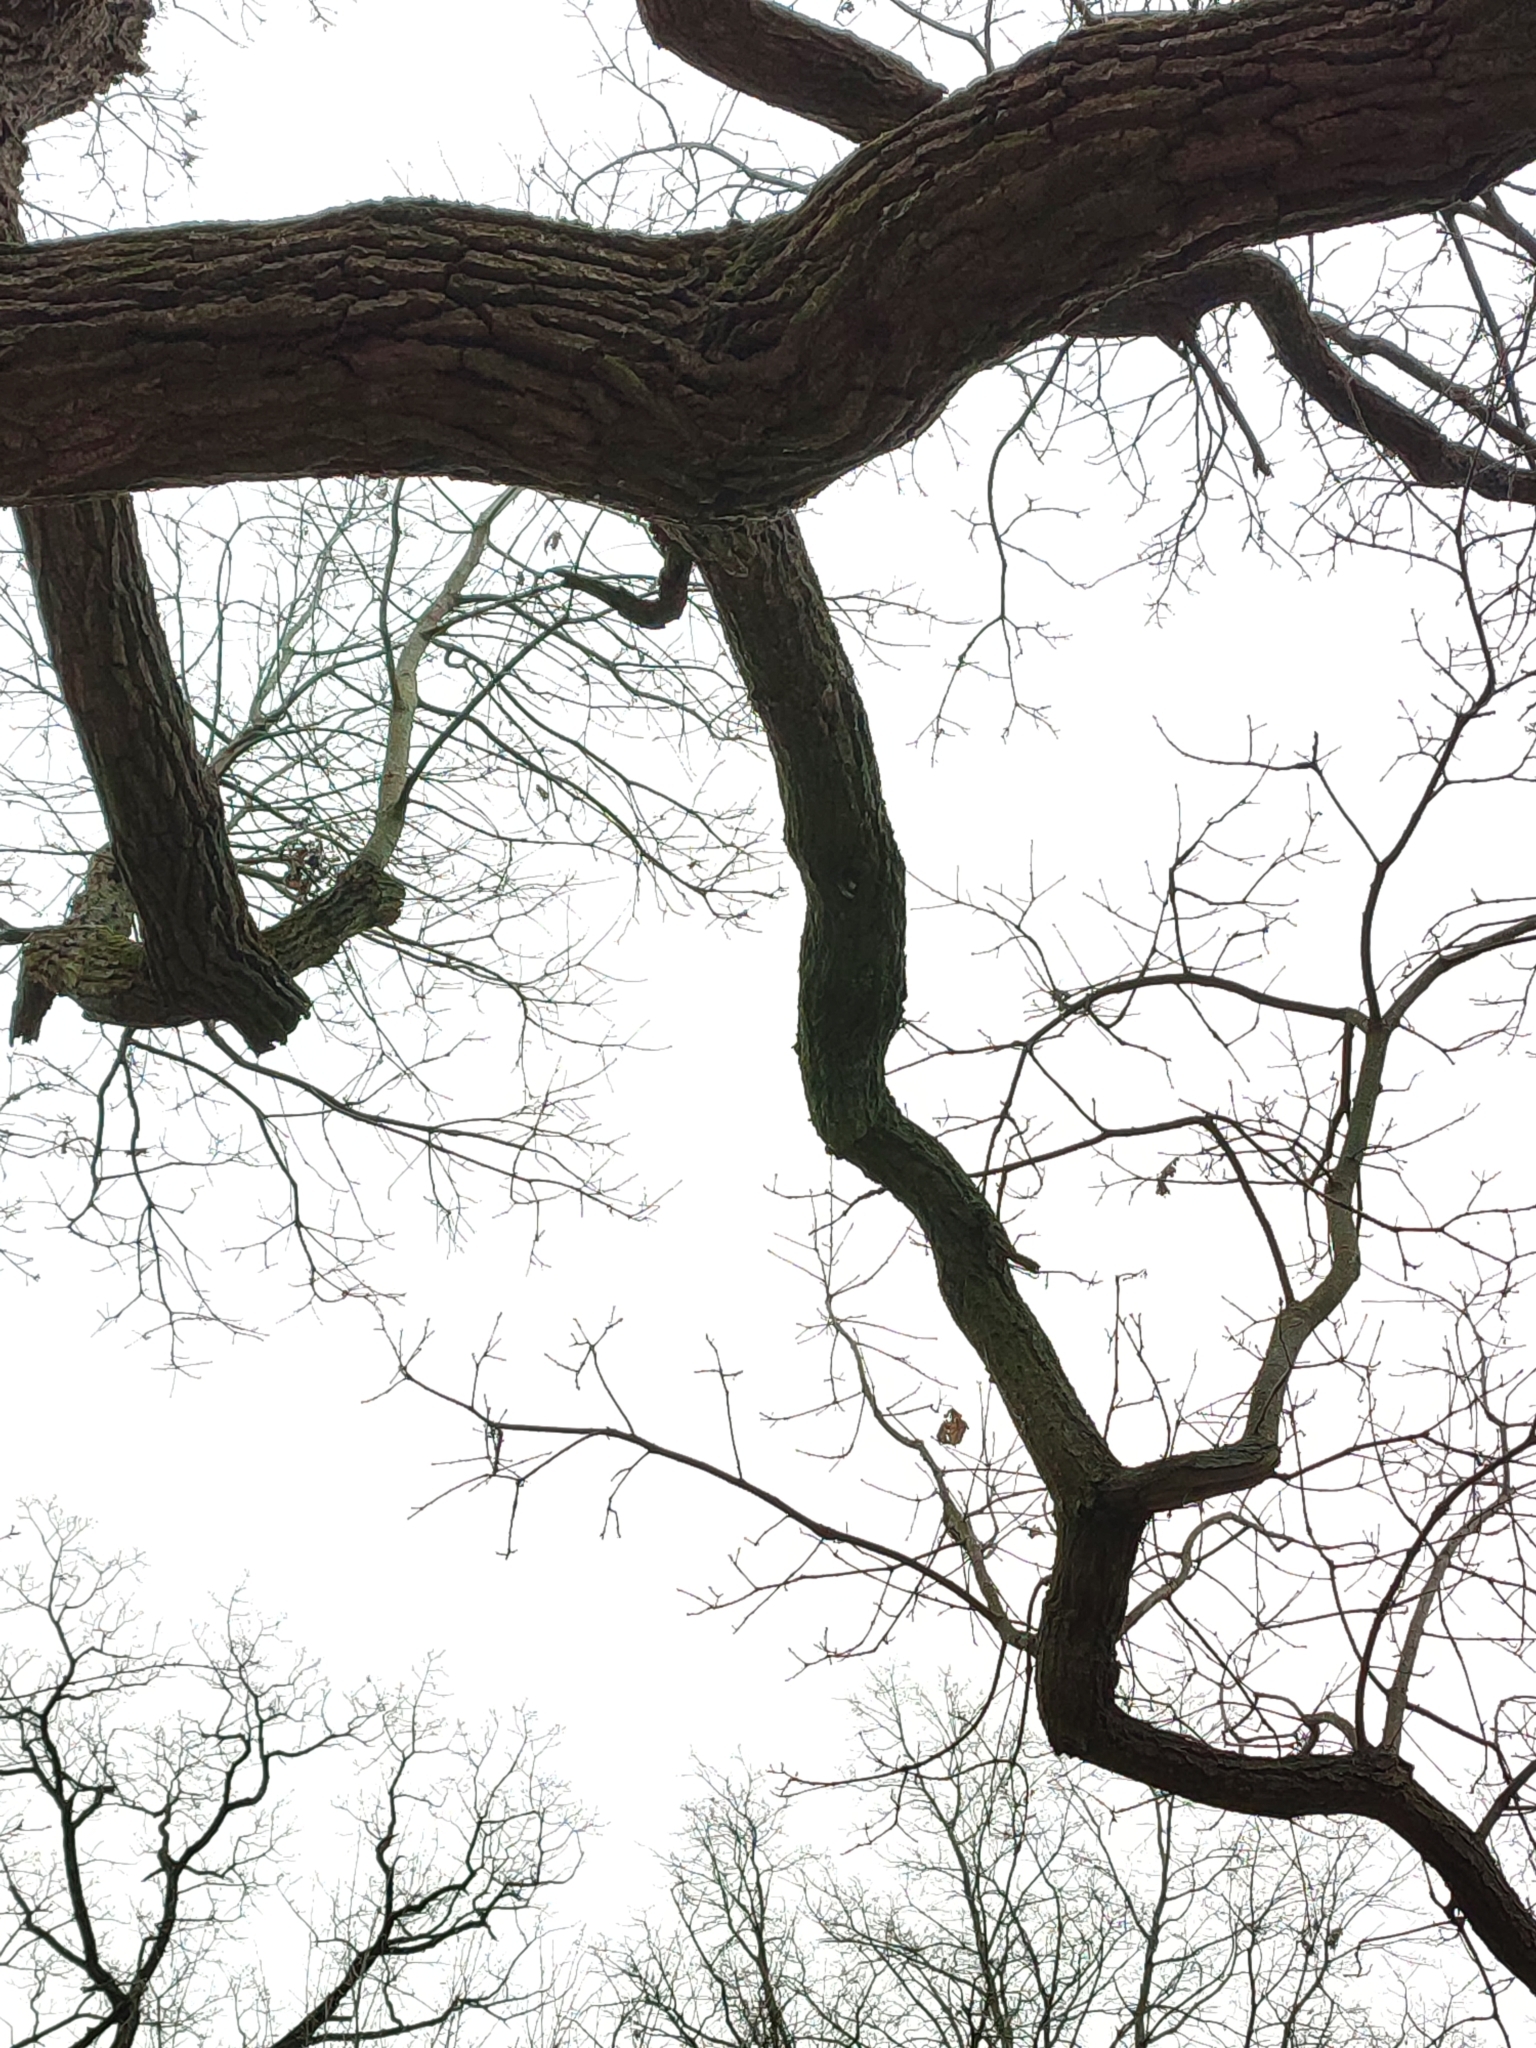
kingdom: Plantae
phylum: Tracheophyta
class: Magnoliopsida
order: Fagales
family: Fagaceae
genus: Quercus
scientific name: Quercus robur
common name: Pedunculate oak
